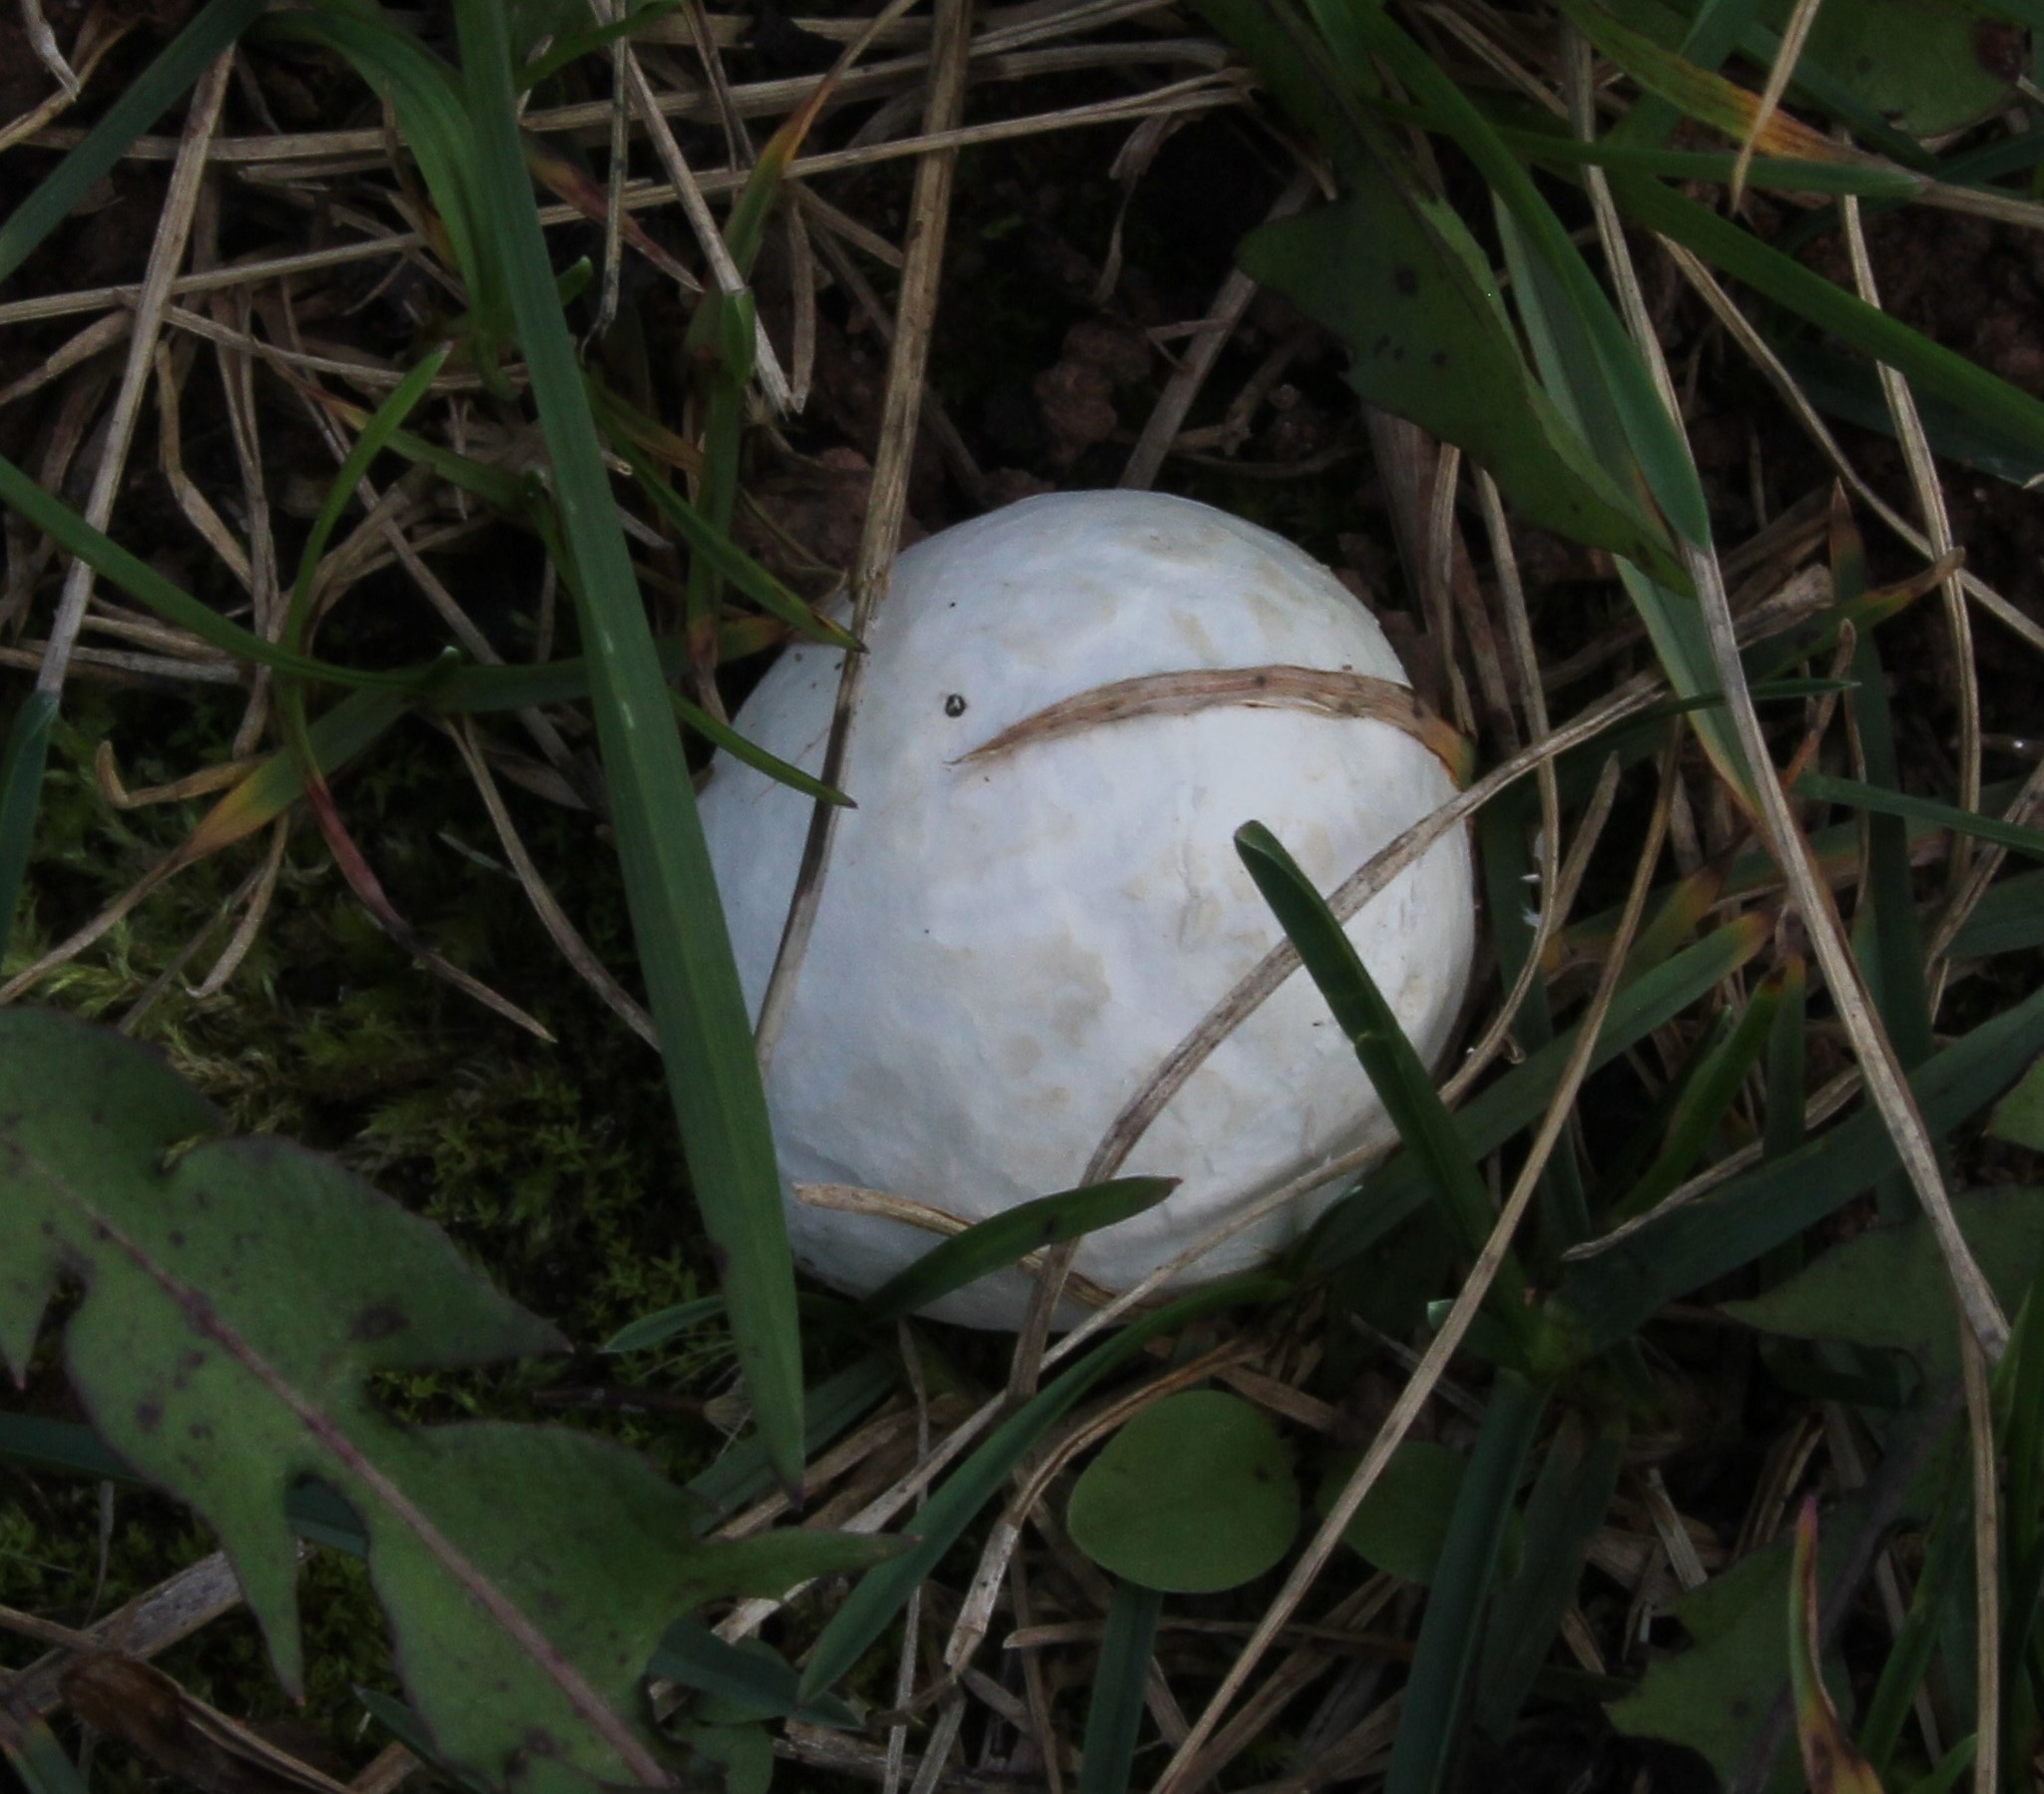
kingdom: Fungi
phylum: Basidiomycota
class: Agaricomycetes
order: Agaricales
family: Lycoperdaceae
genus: Bovista
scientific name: Bovista plumbea
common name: Grey puffball
